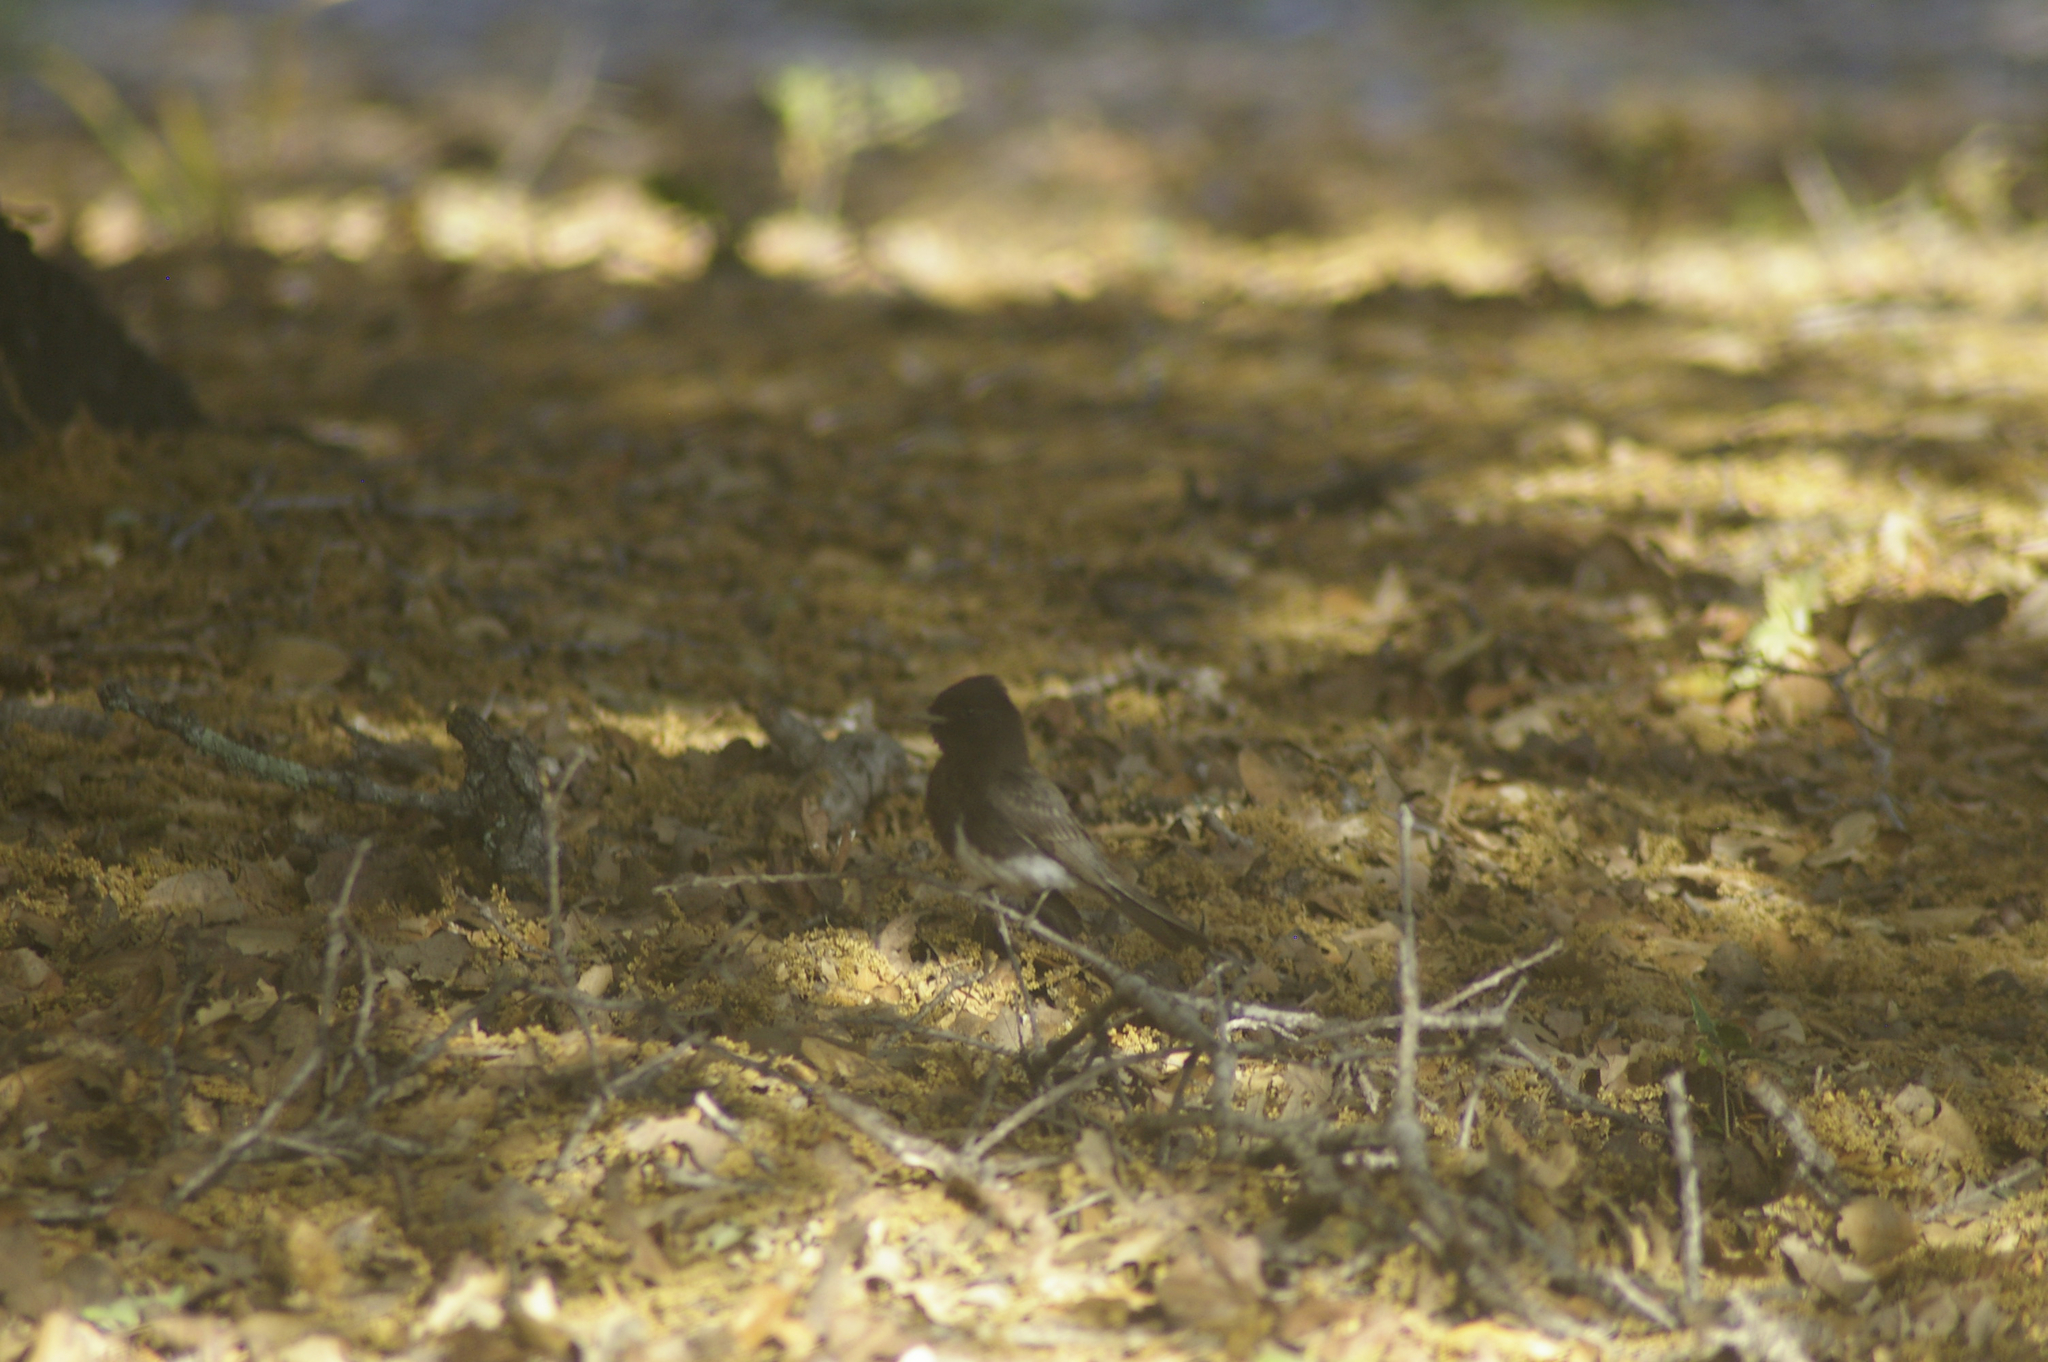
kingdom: Animalia
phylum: Chordata
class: Aves
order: Passeriformes
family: Tyrannidae
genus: Sayornis
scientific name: Sayornis nigricans
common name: Black phoebe
